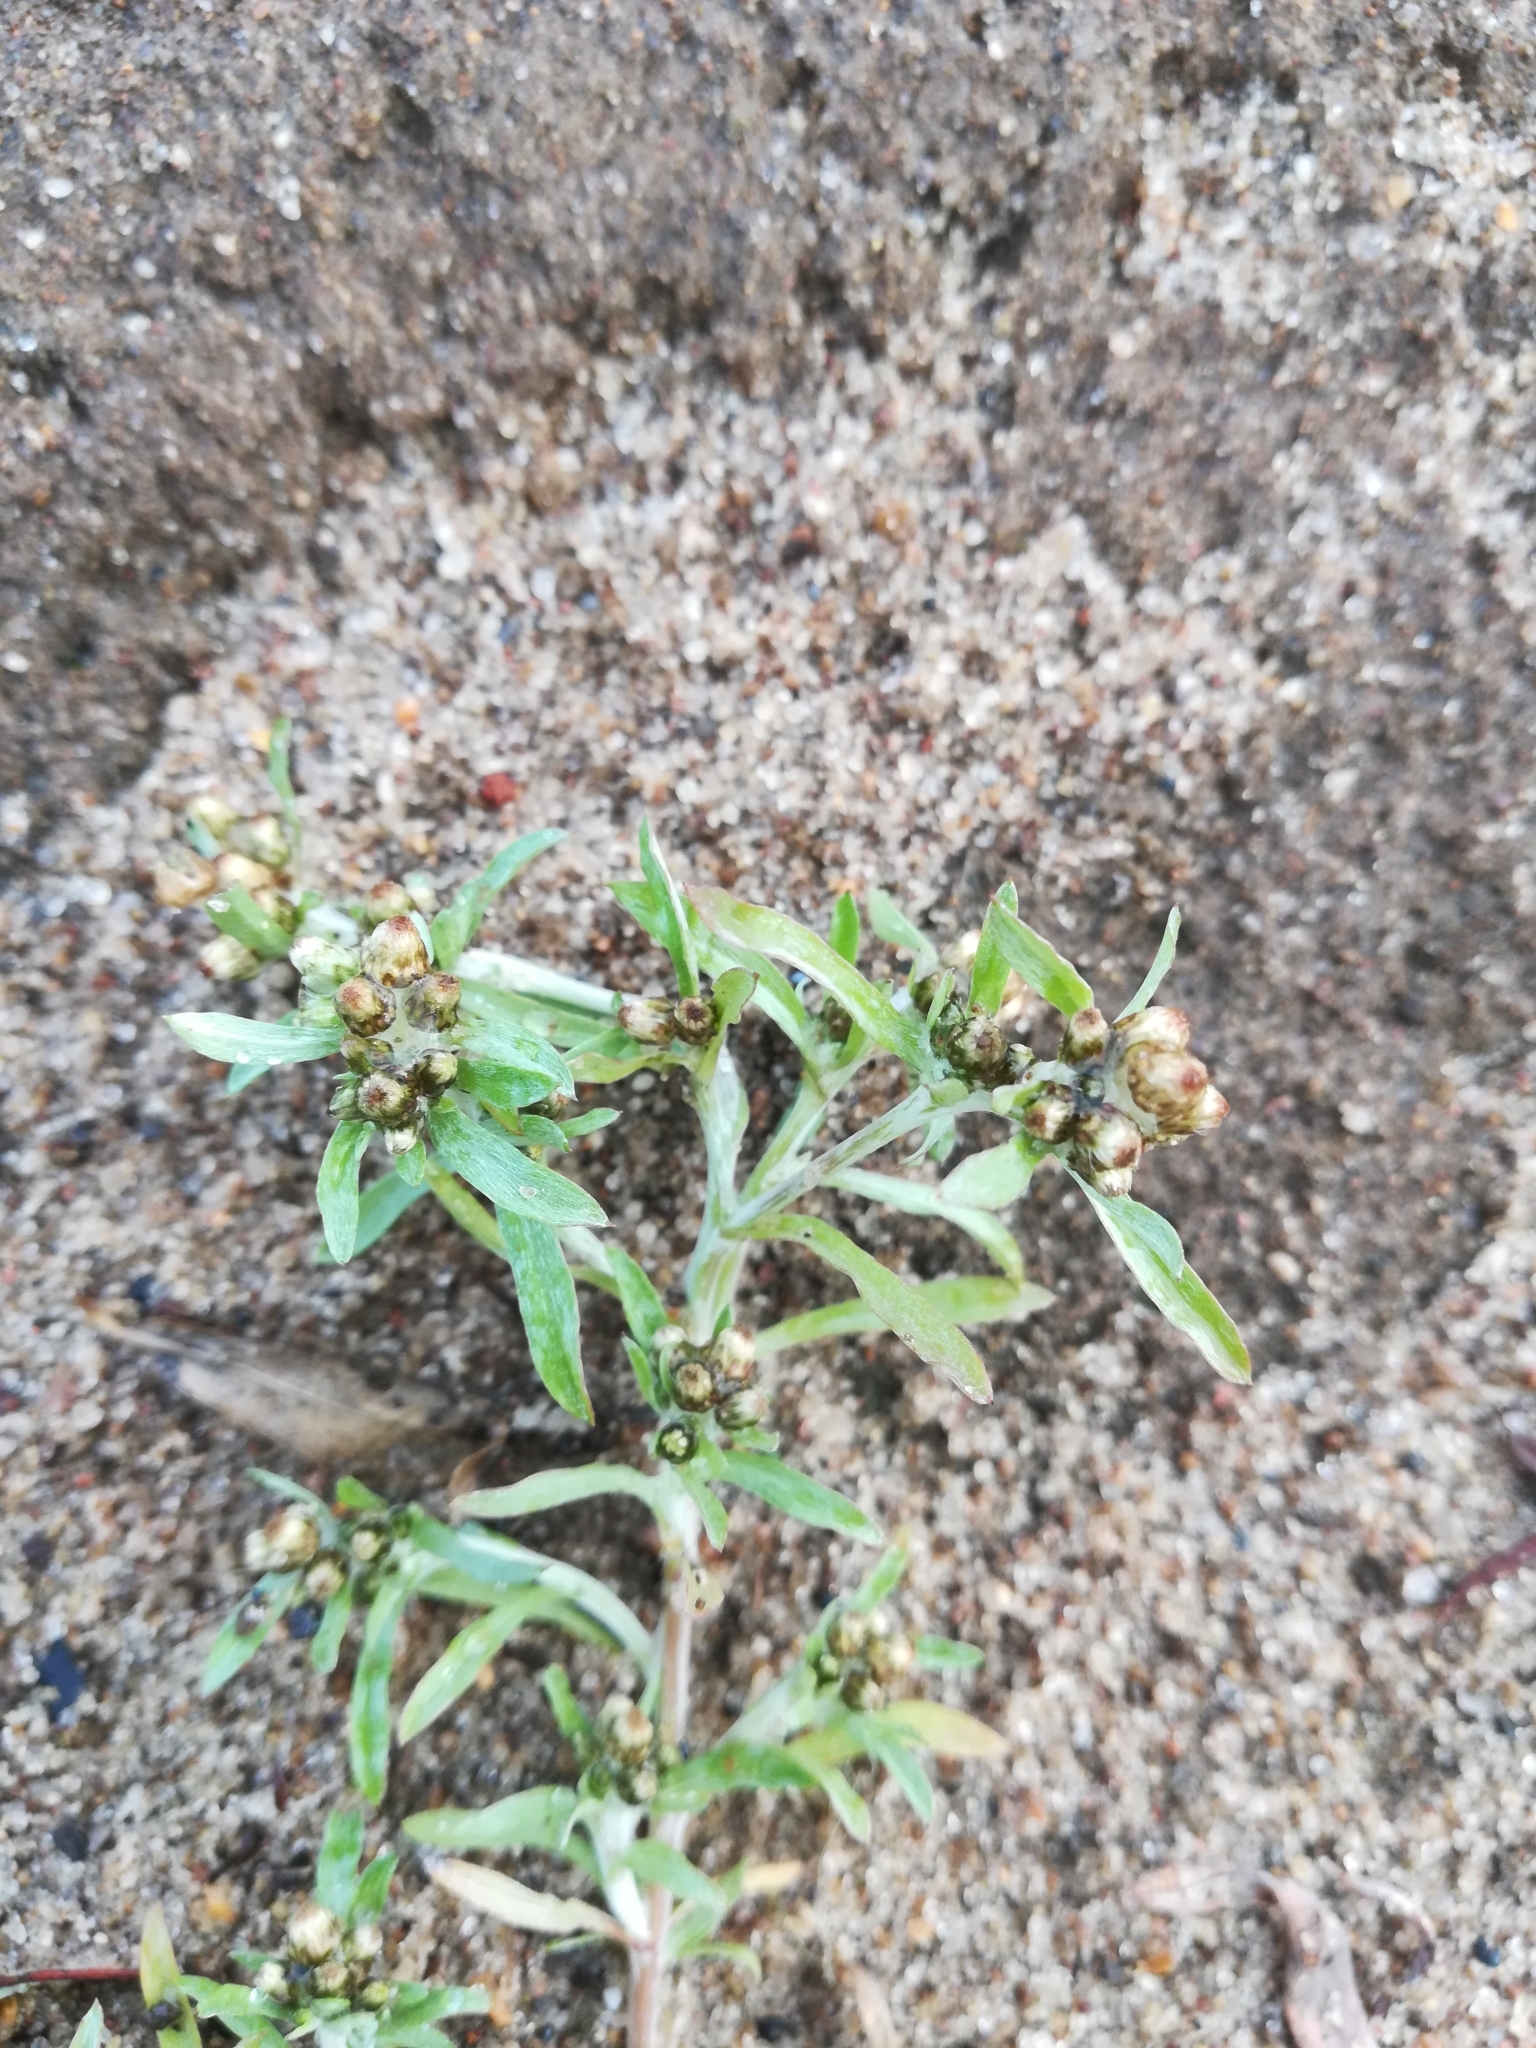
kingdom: Plantae
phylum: Tracheophyta
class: Magnoliopsida
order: Asterales
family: Asteraceae
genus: Gnaphalium
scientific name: Gnaphalium uliginosum
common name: Marsh cudweed
